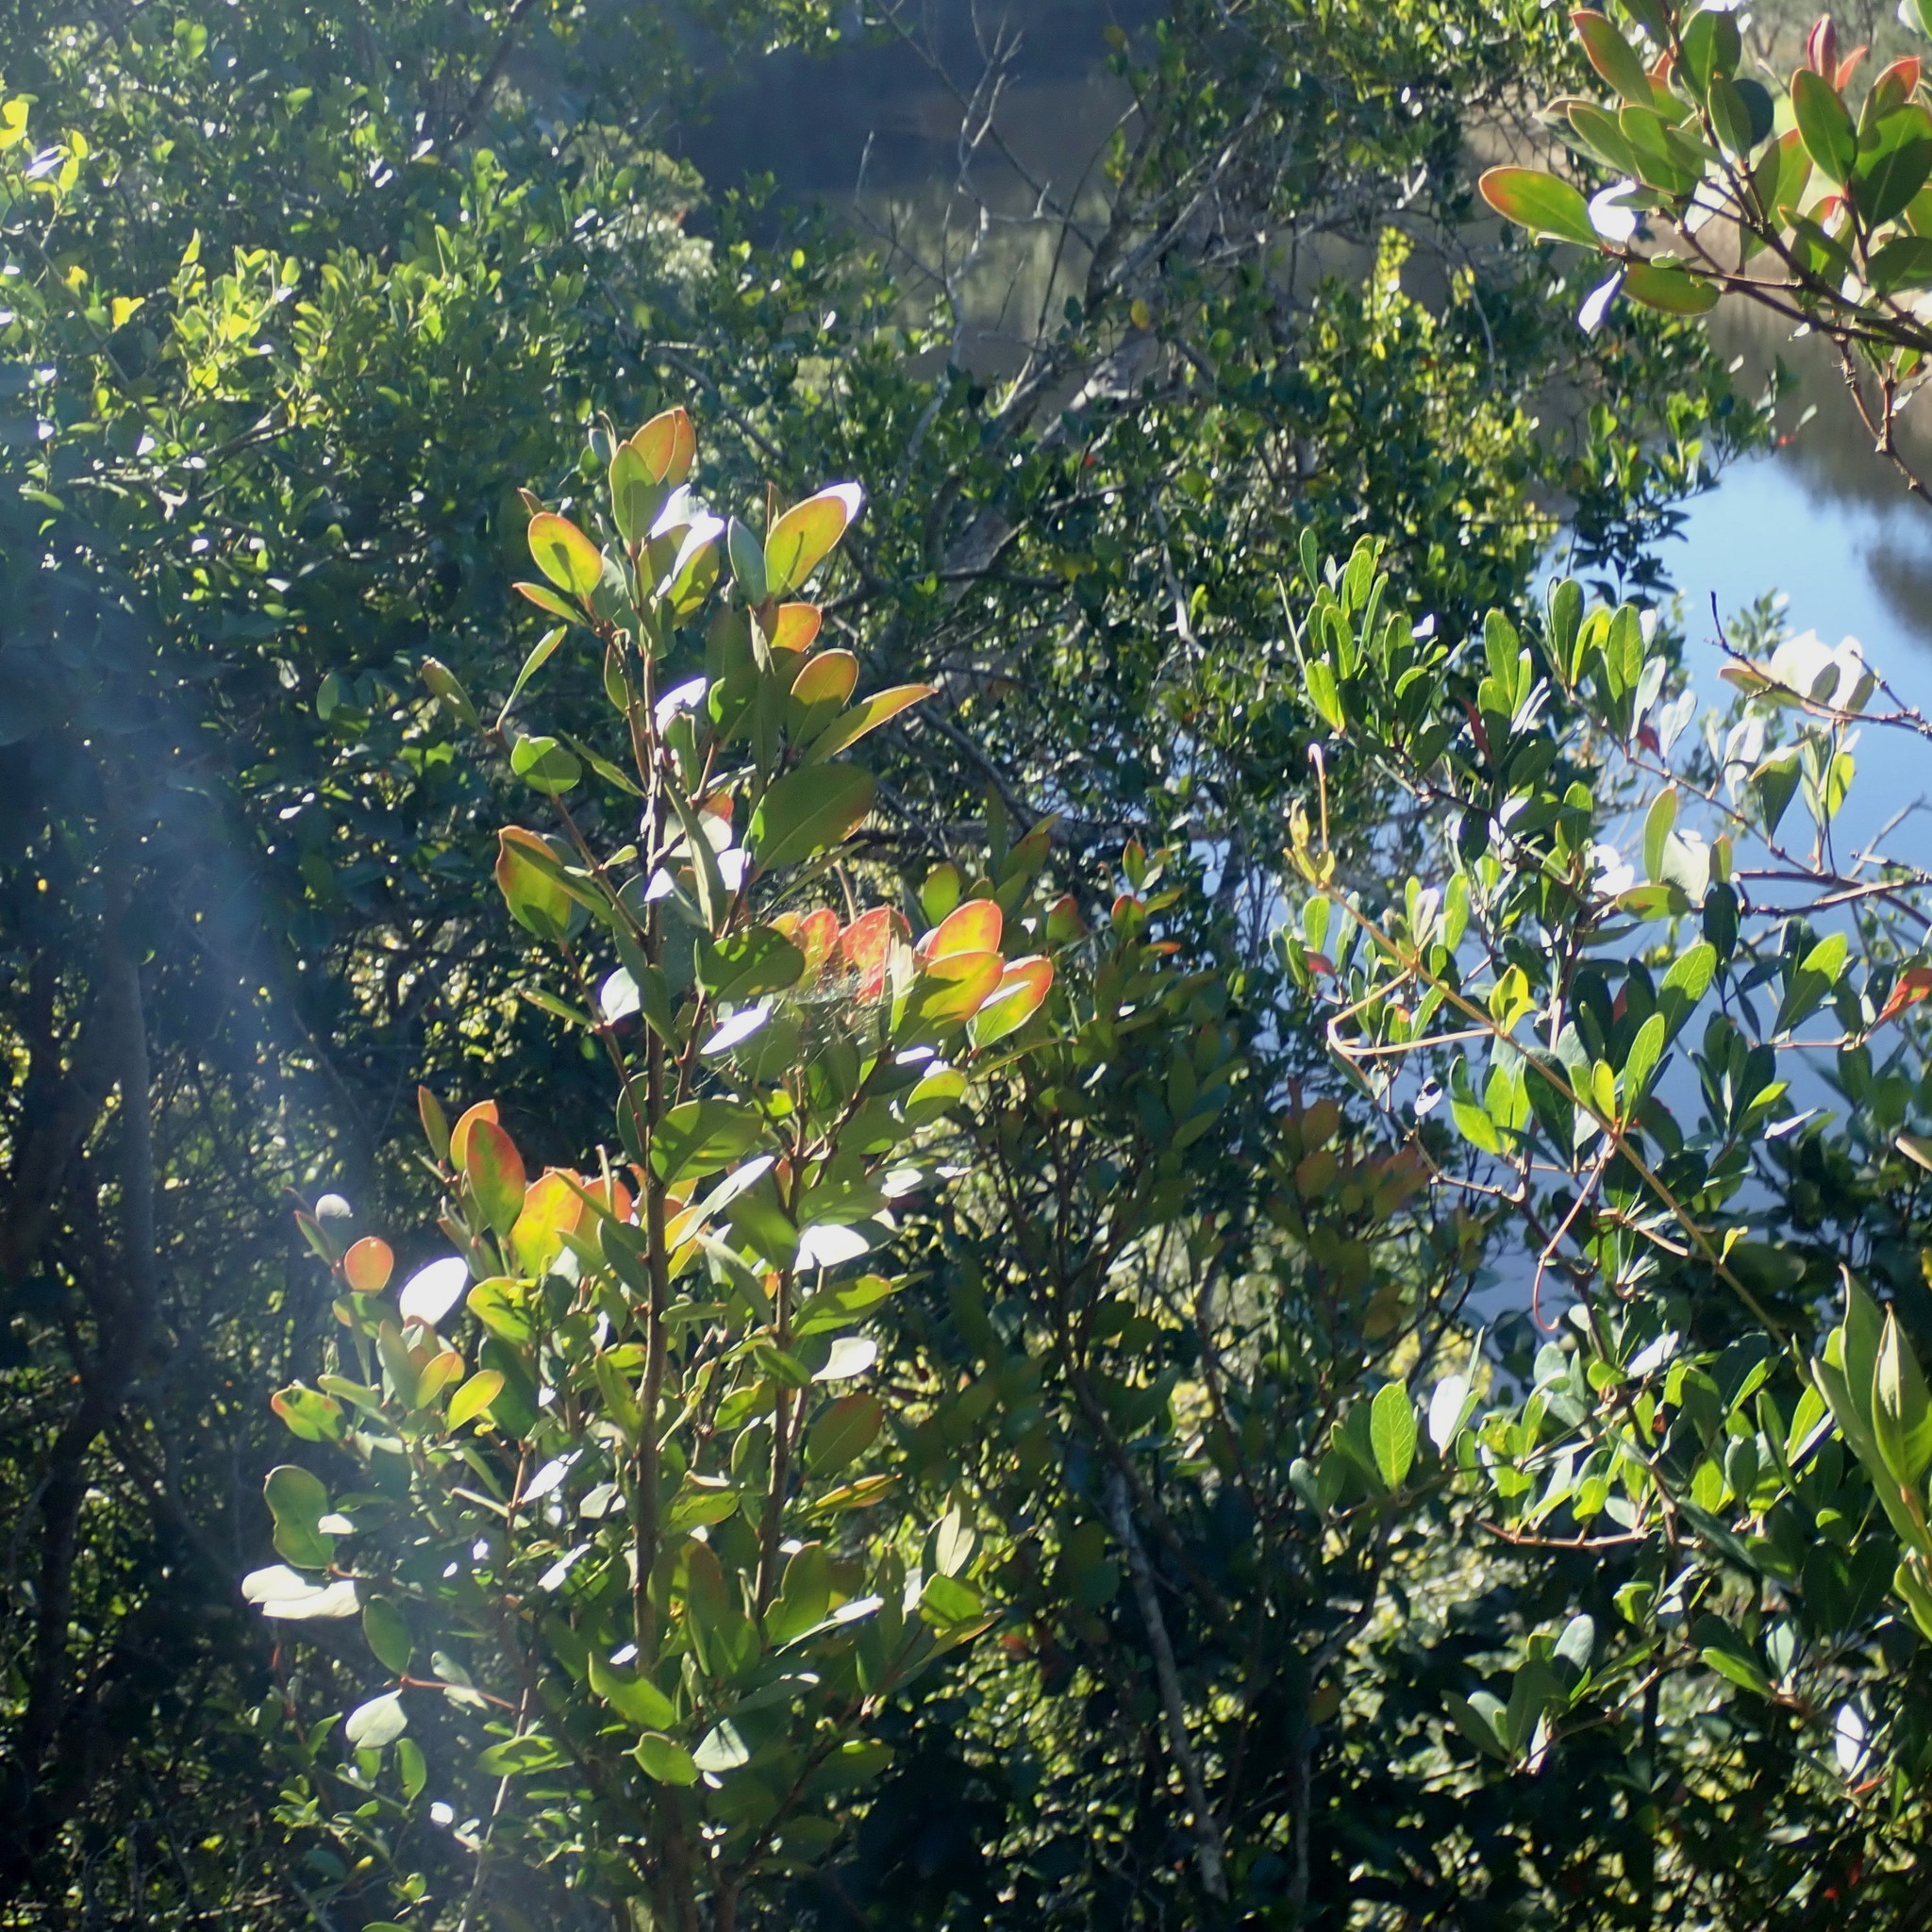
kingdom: Plantae
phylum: Tracheophyta
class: Magnoliopsida
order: Gentianales
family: Apocynaceae
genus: Acokanthera
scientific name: Acokanthera oppositifolia
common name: Bushman's-poison
